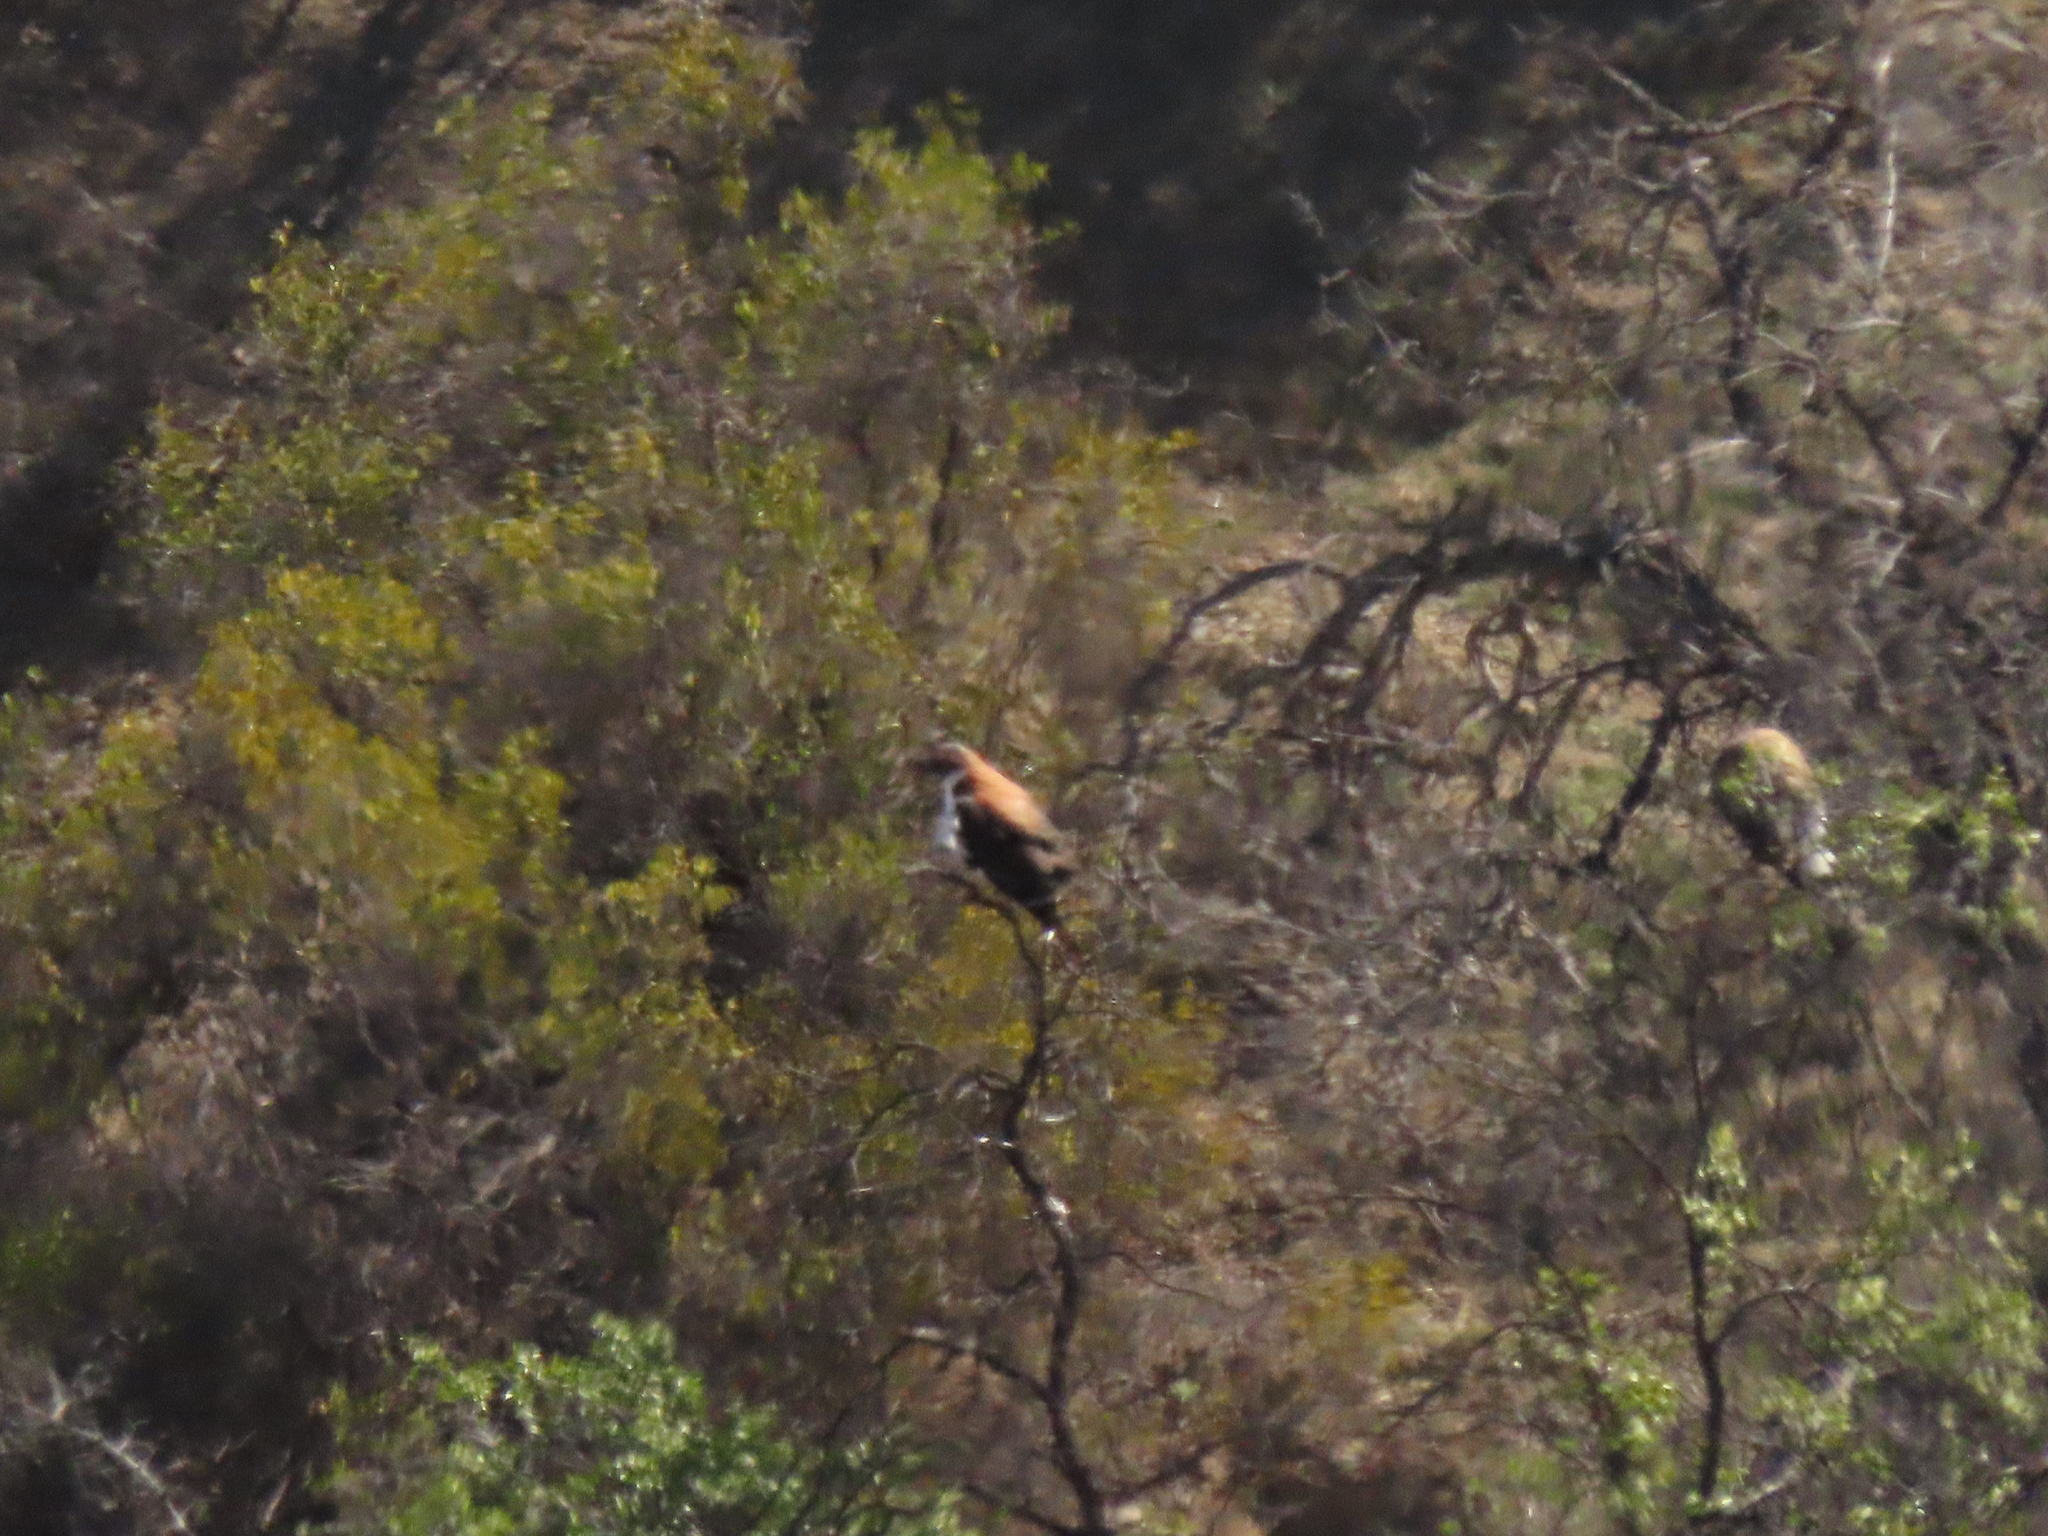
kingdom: Animalia
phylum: Chordata
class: Aves
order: Accipitriformes
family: Accipitridae
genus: Buteo
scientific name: Buteo polyosoma
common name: Variable hawk
